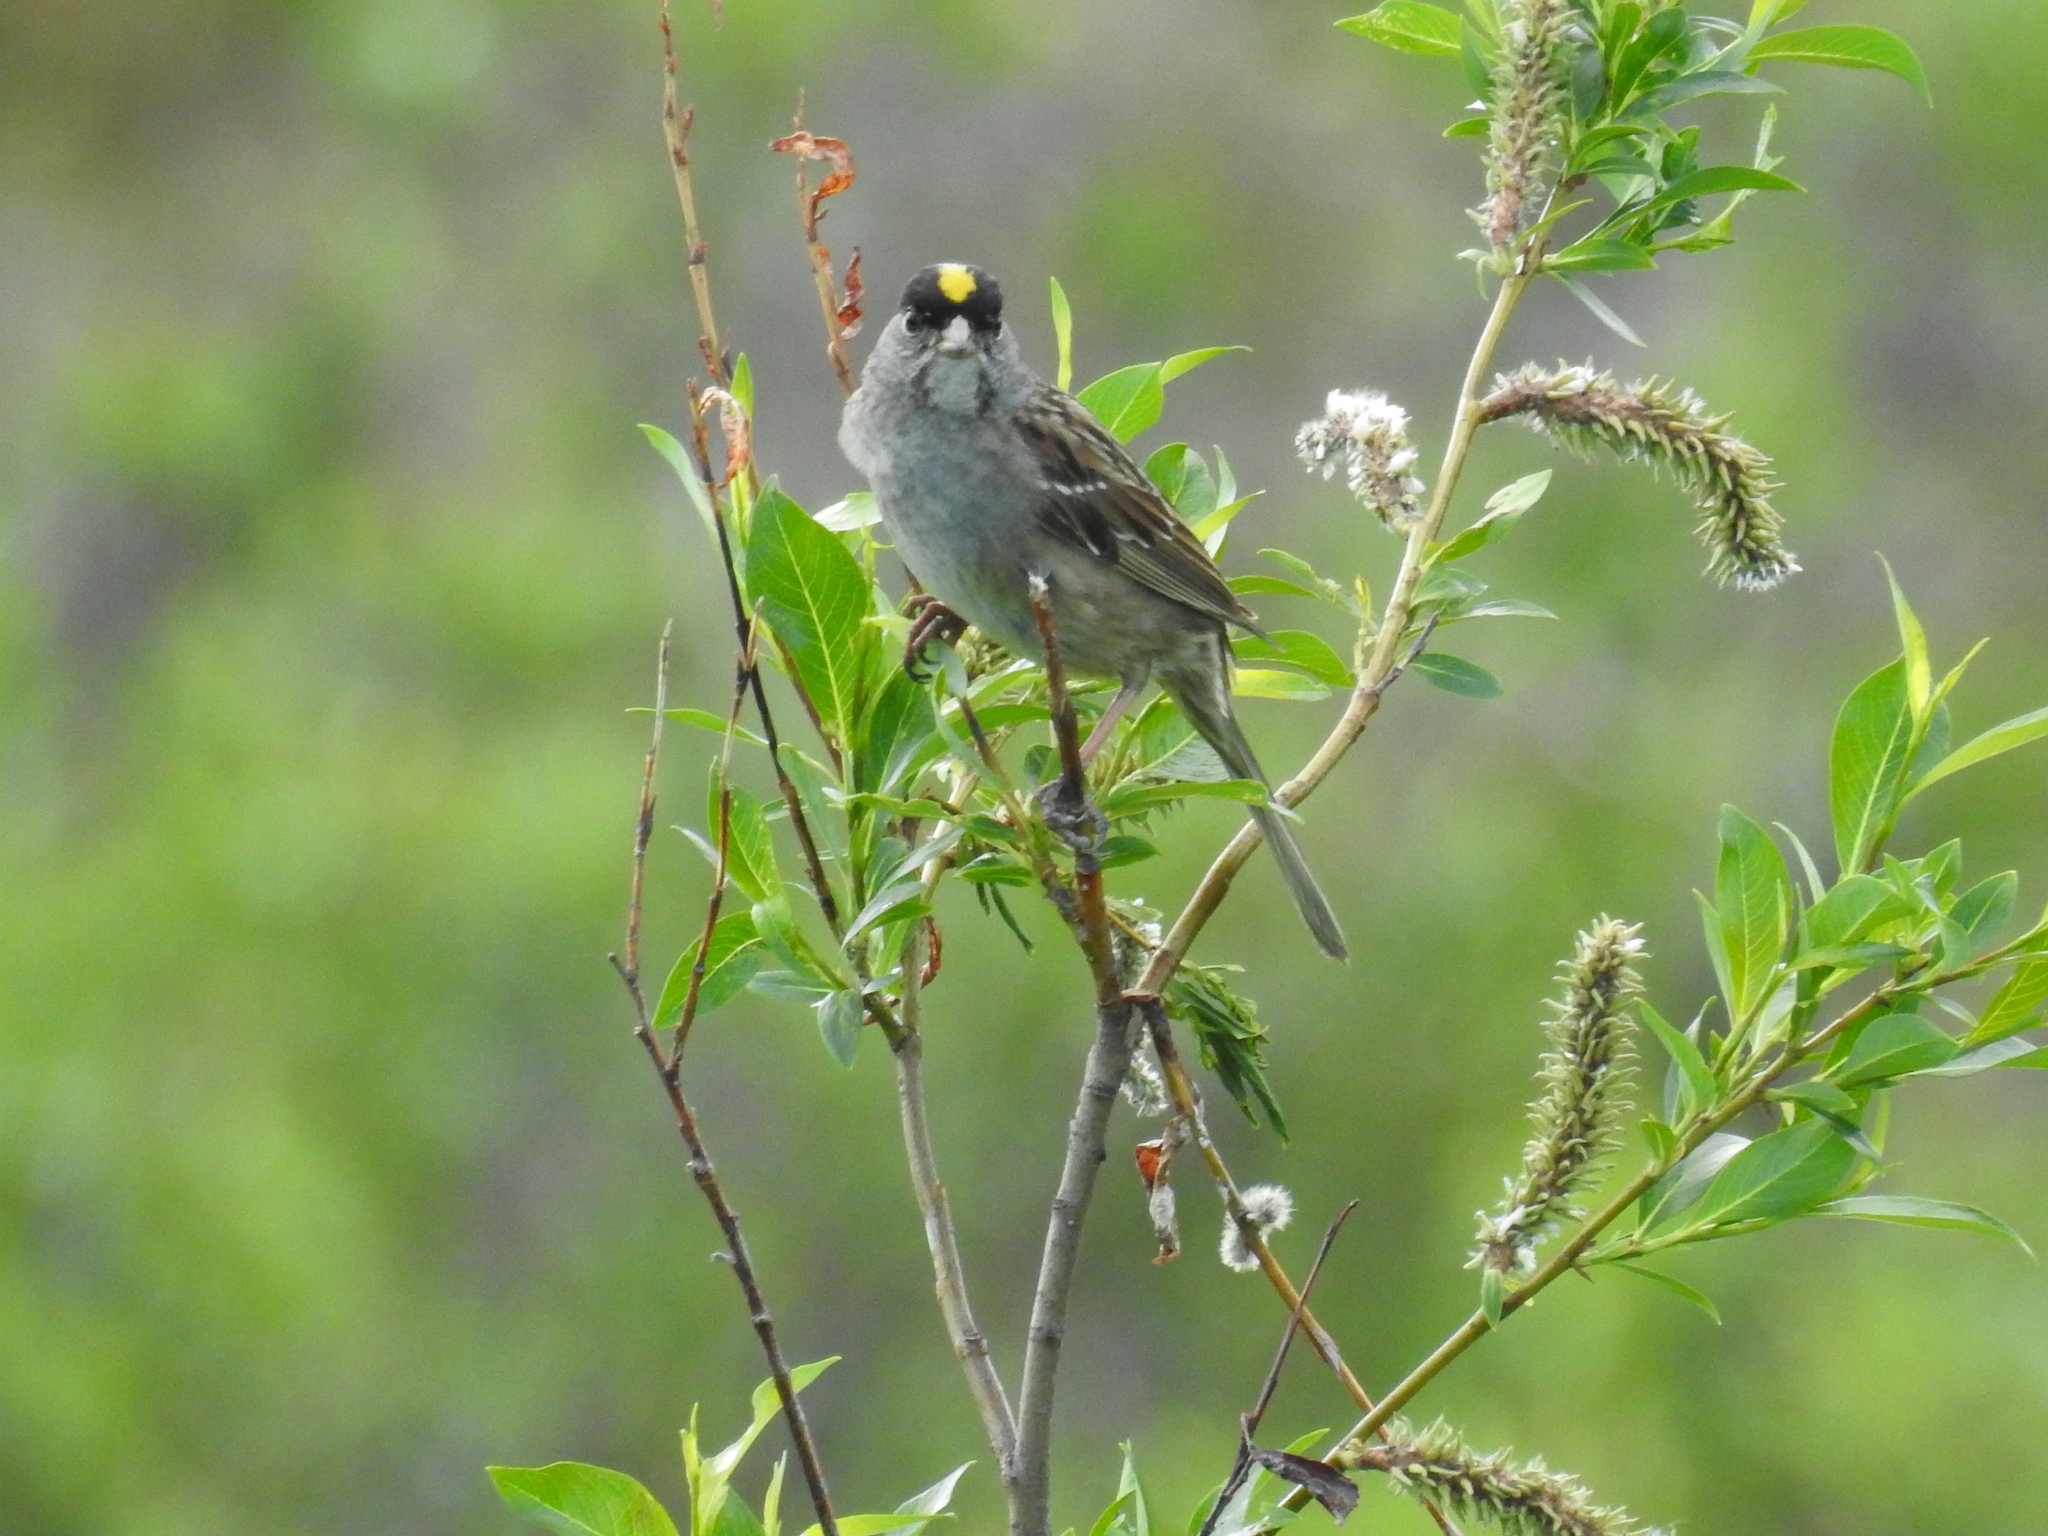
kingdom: Animalia
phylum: Chordata
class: Aves
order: Passeriformes
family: Passerellidae
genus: Zonotrichia
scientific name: Zonotrichia atricapilla
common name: Golden-crowned sparrow
